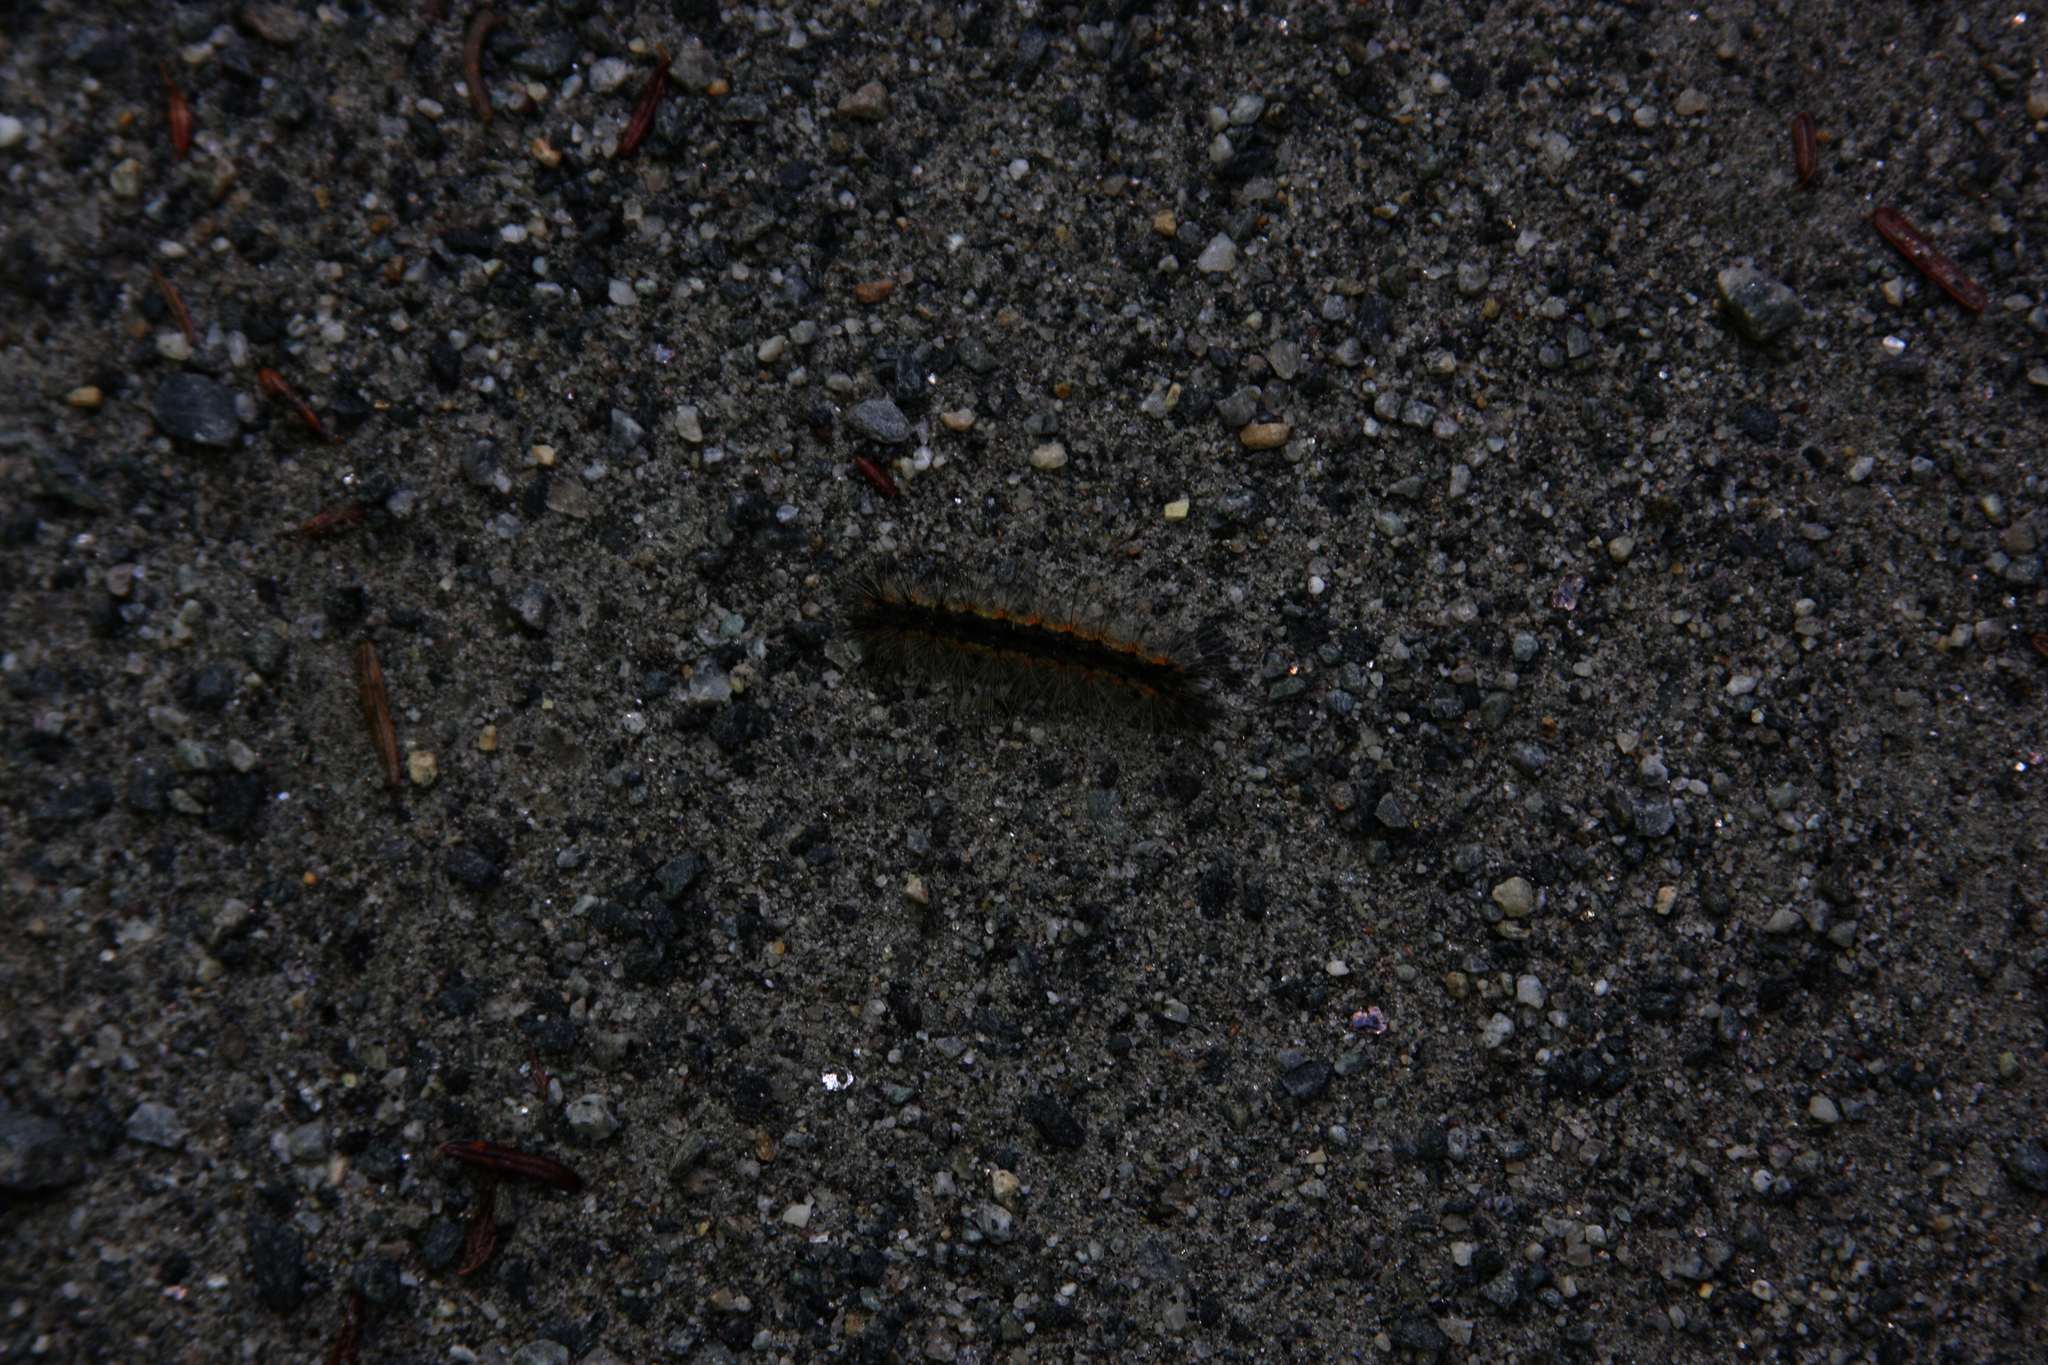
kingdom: Animalia
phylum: Arthropoda
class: Insecta
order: Lepidoptera
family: Erebidae
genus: Hyphantria
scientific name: Hyphantria cunea
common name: American white moth
